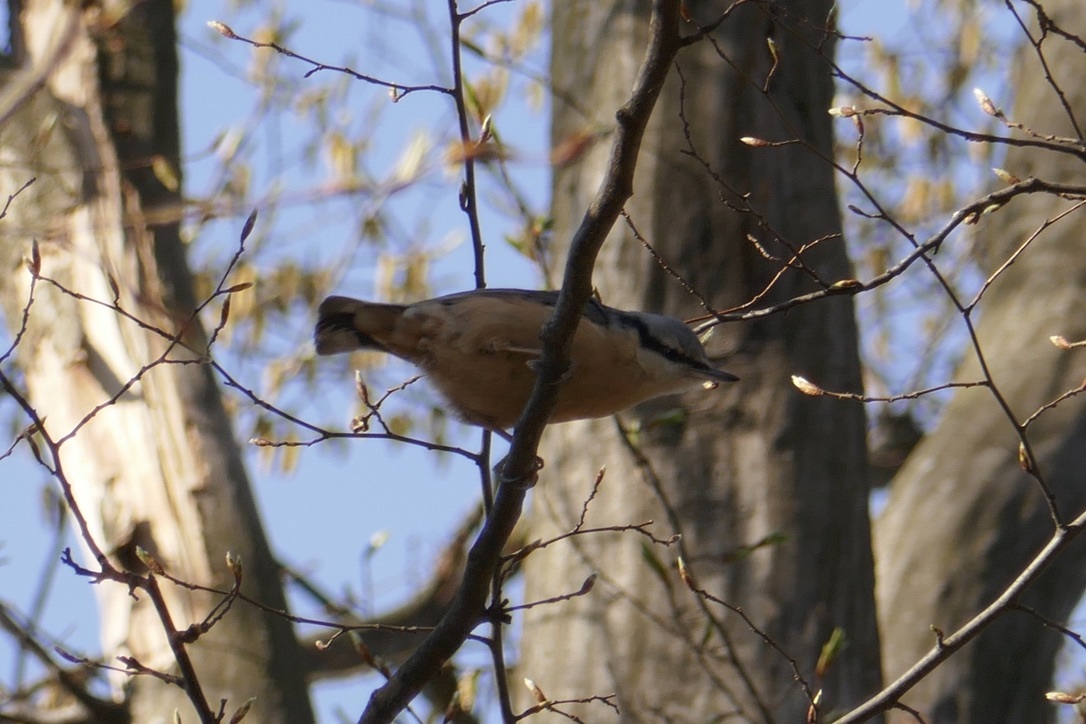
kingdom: Animalia
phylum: Chordata
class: Aves
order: Passeriformes
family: Sittidae
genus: Sitta
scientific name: Sitta europaea
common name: Eurasian nuthatch
